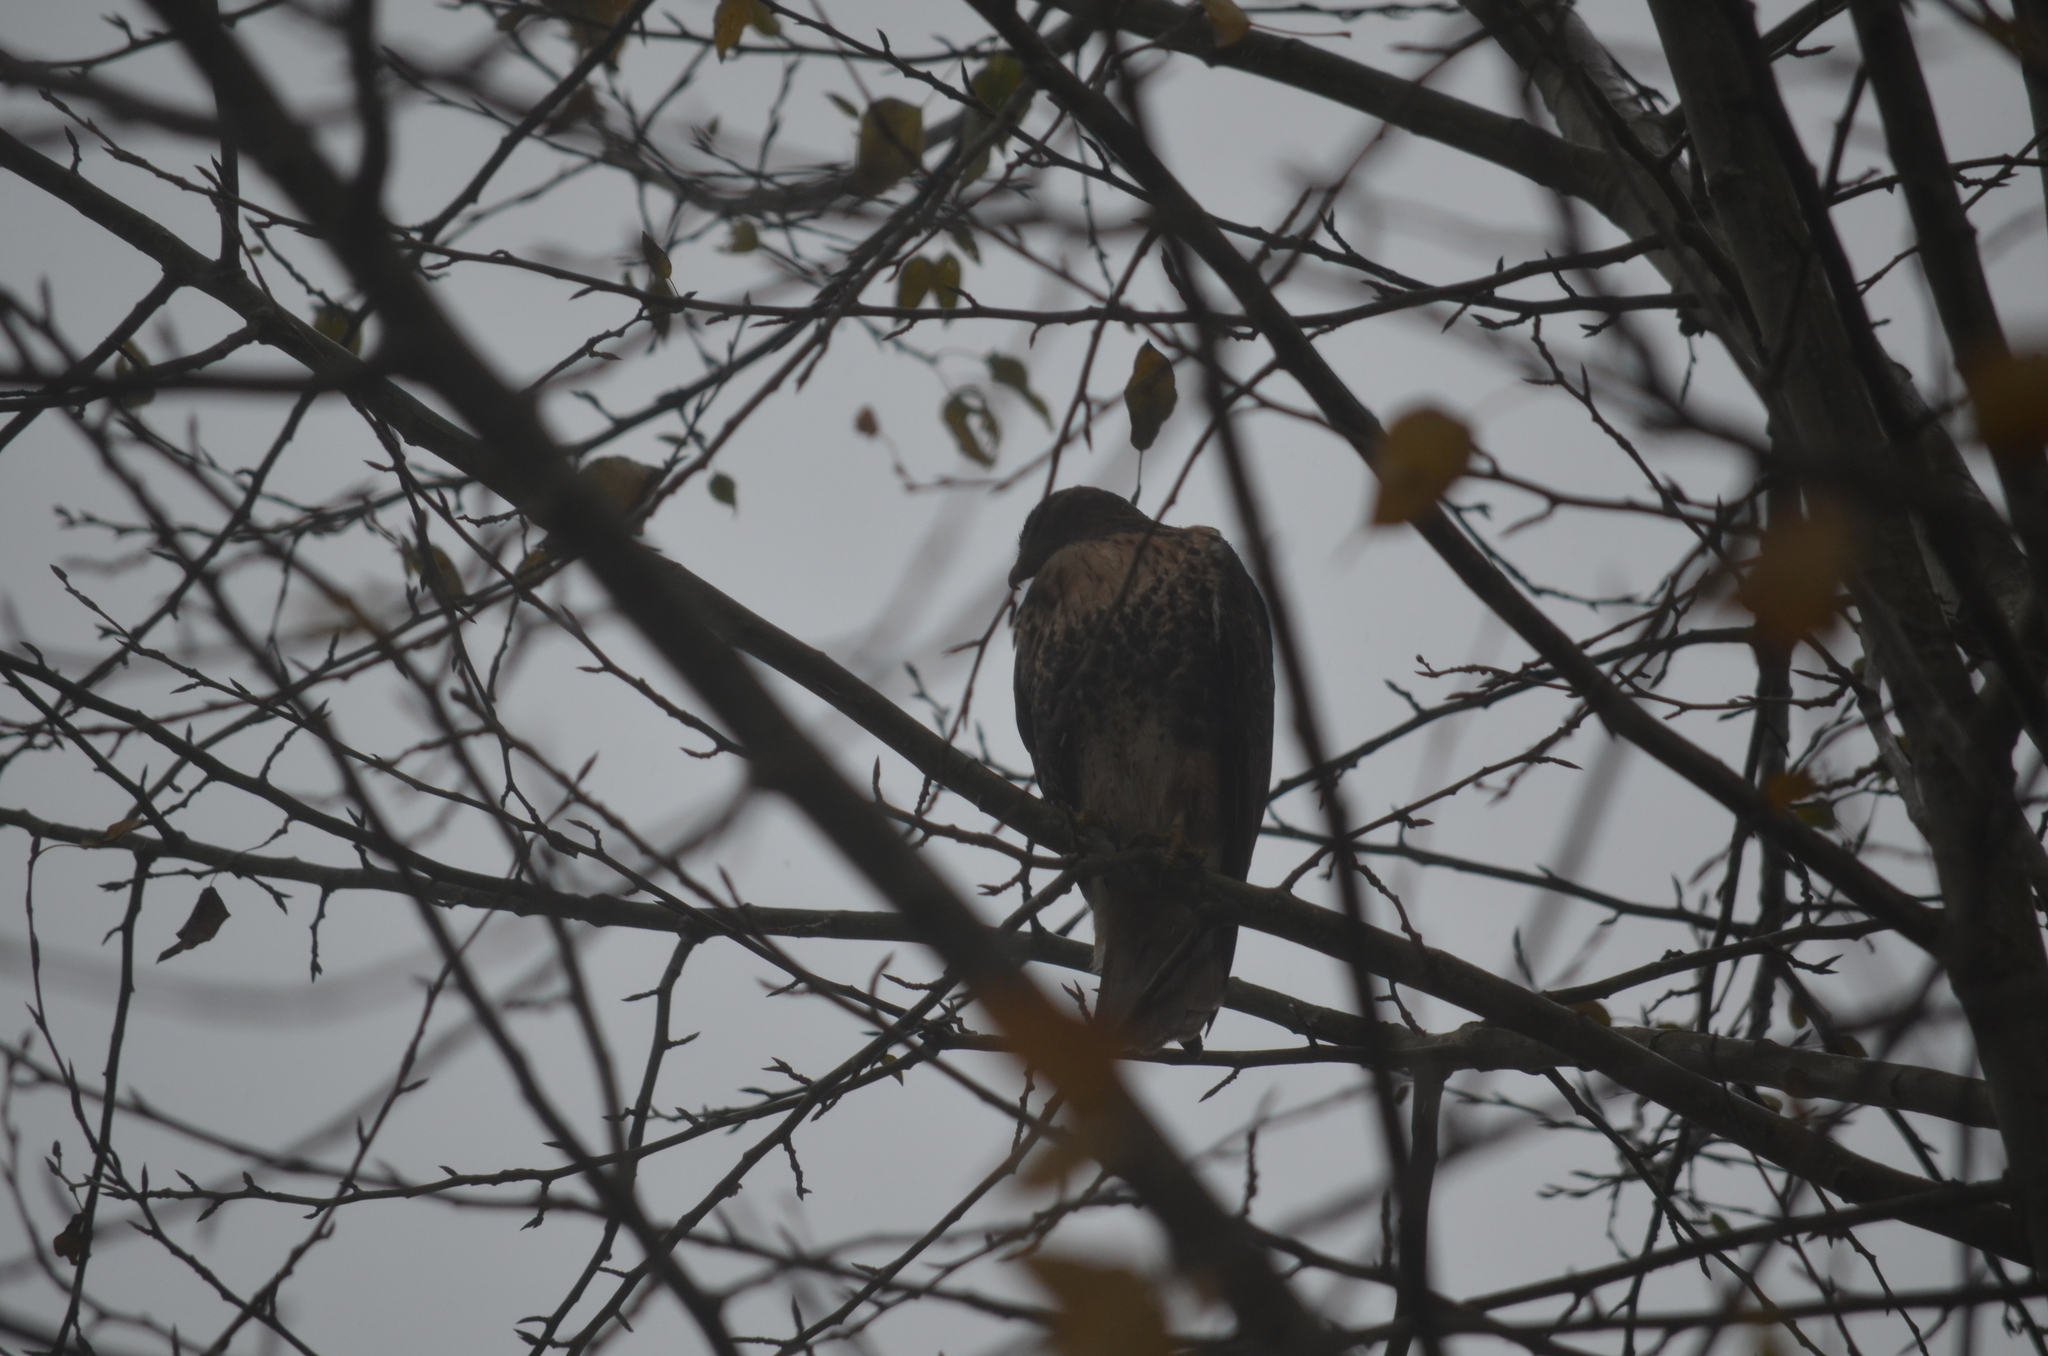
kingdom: Animalia
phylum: Chordata
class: Aves
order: Accipitriformes
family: Accipitridae
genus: Buteo
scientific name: Buteo jamaicensis
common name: Red-tailed hawk
